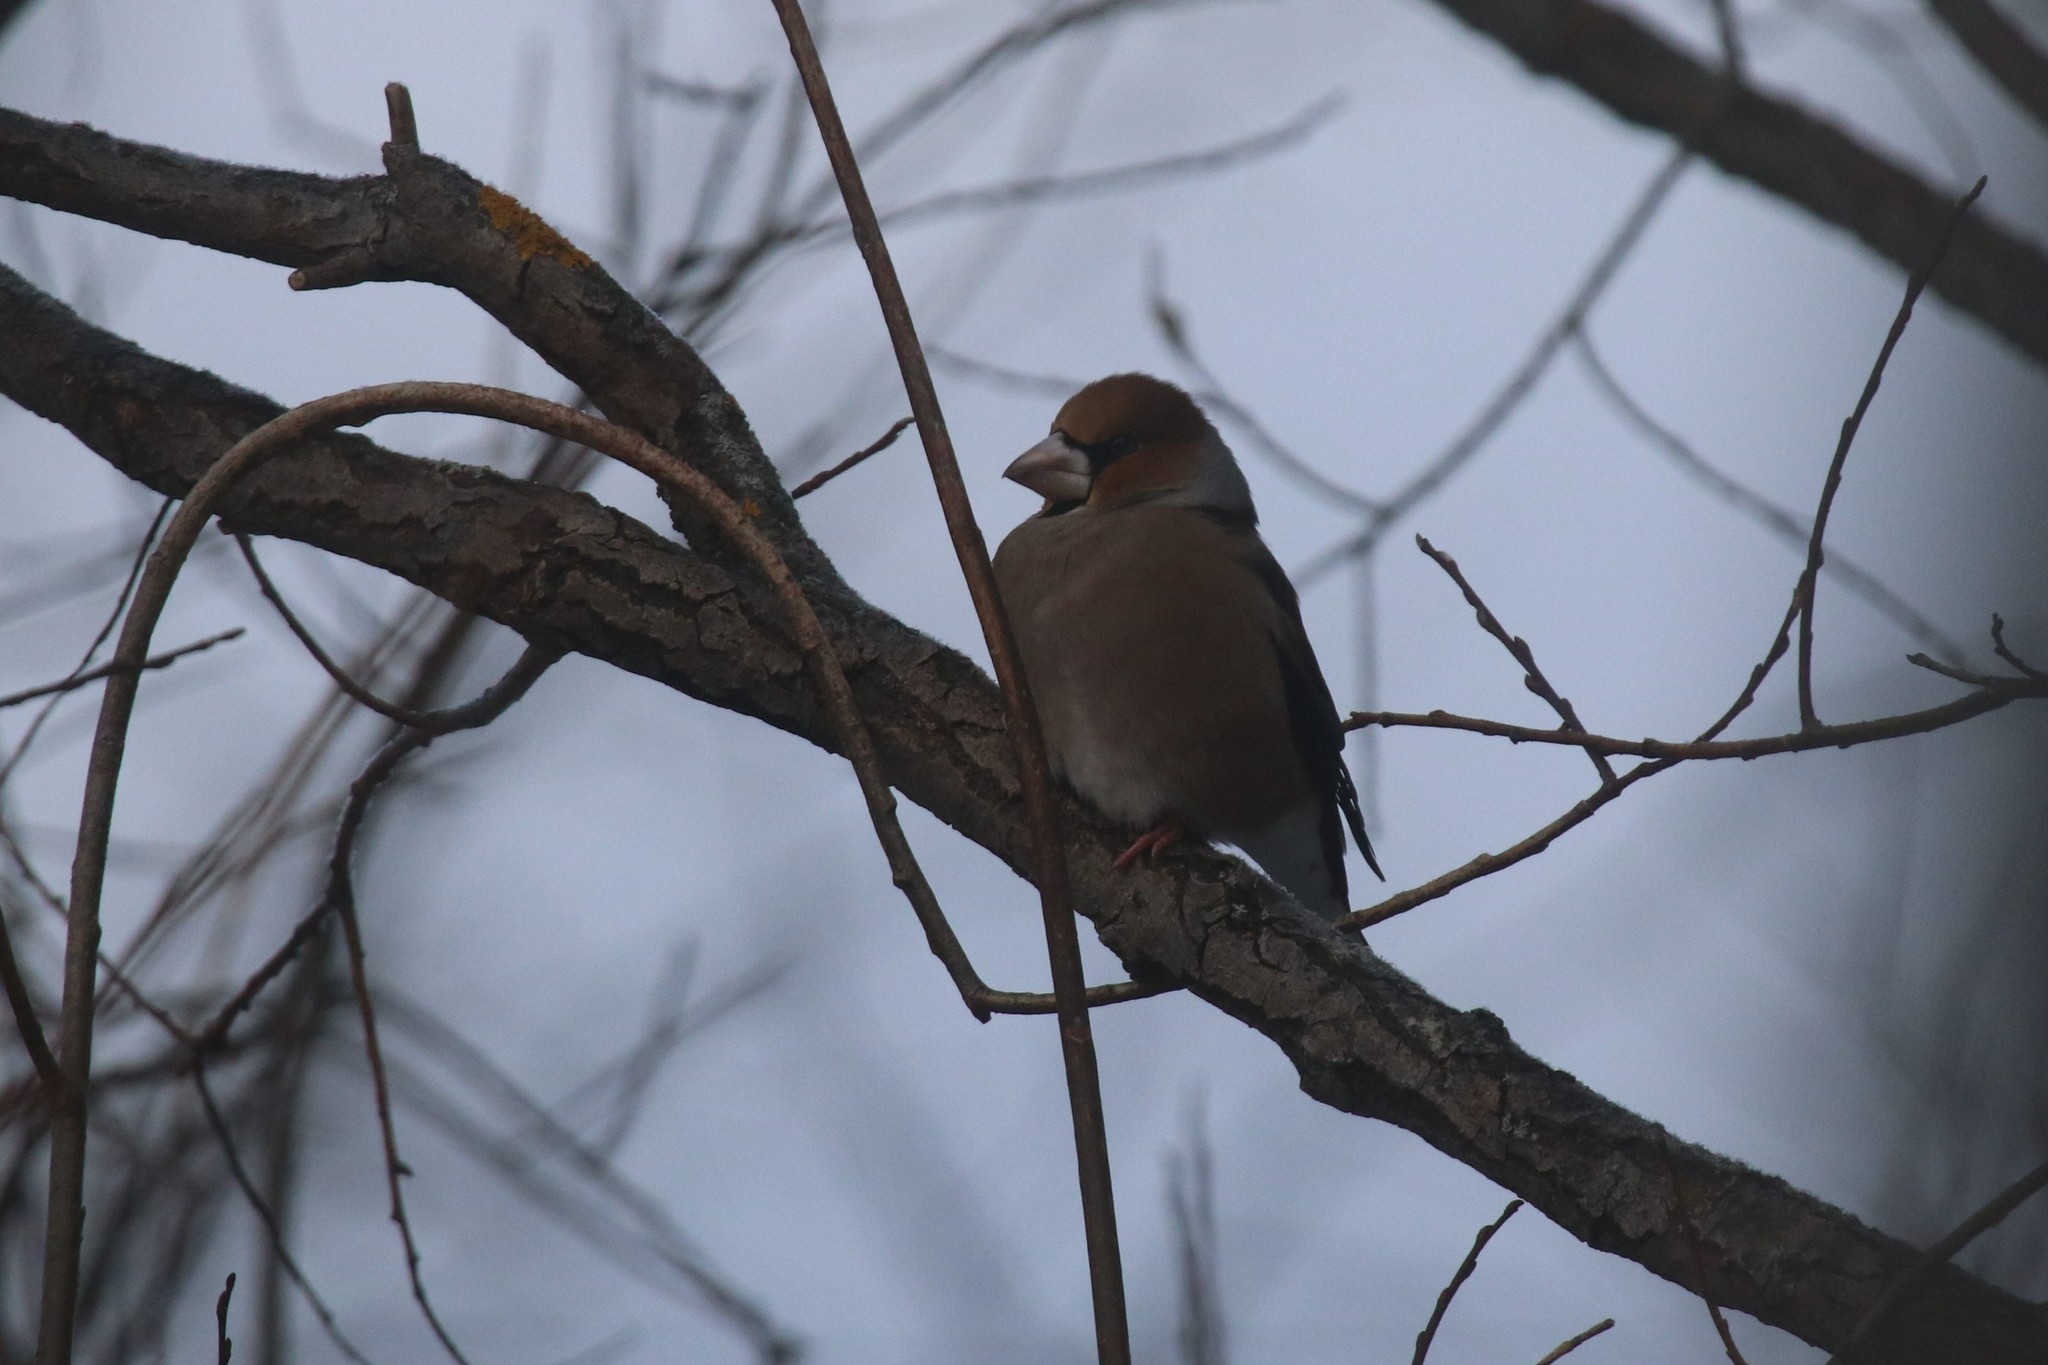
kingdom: Animalia
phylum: Chordata
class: Aves
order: Passeriformes
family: Fringillidae
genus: Coccothraustes
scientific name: Coccothraustes coccothraustes
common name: Hawfinch
